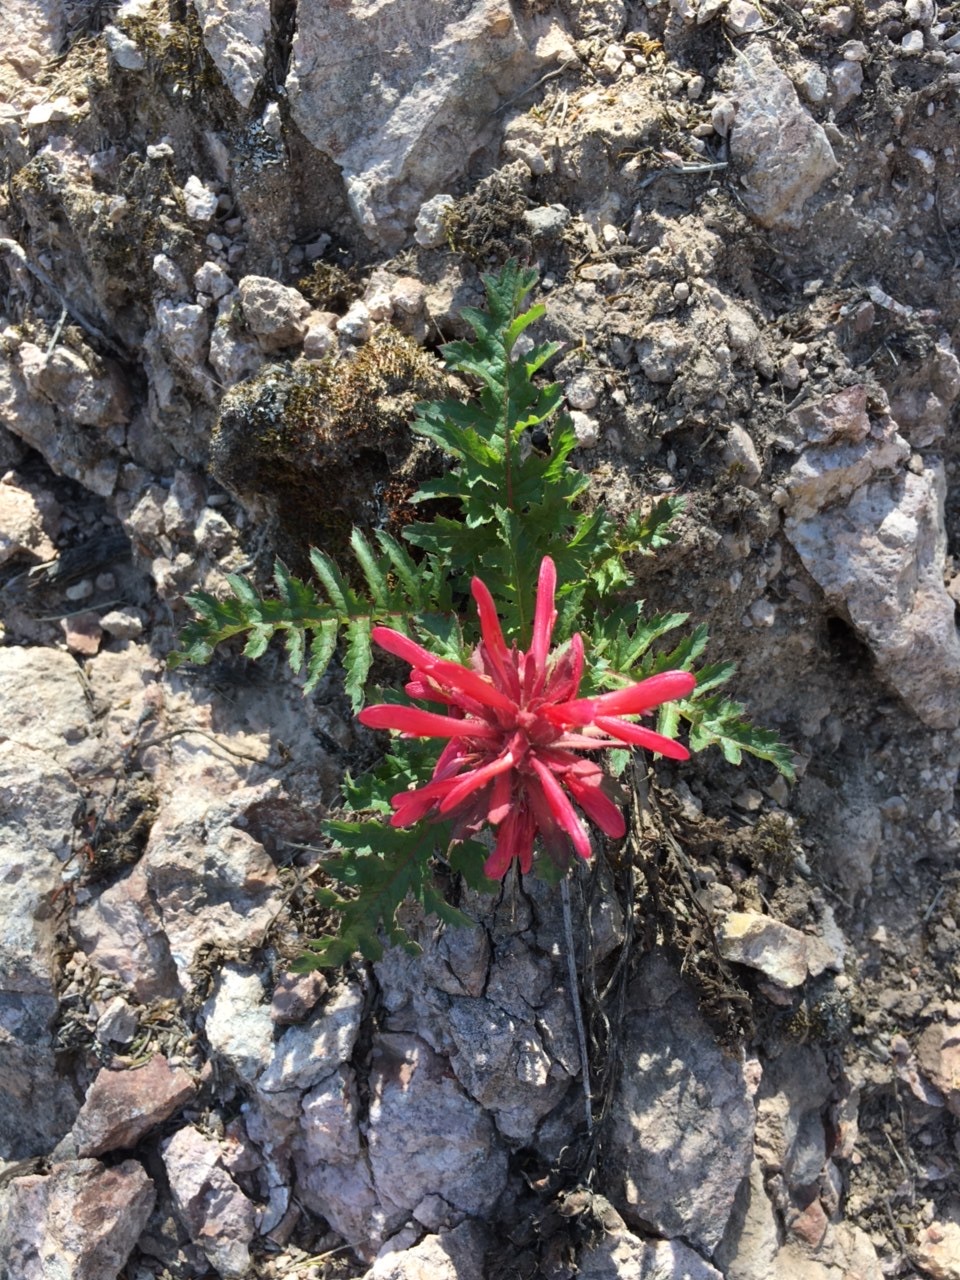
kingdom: Plantae
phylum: Tracheophyta
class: Magnoliopsida
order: Lamiales
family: Orobanchaceae
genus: Pedicularis
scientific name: Pedicularis densiflora
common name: Indian warrior
